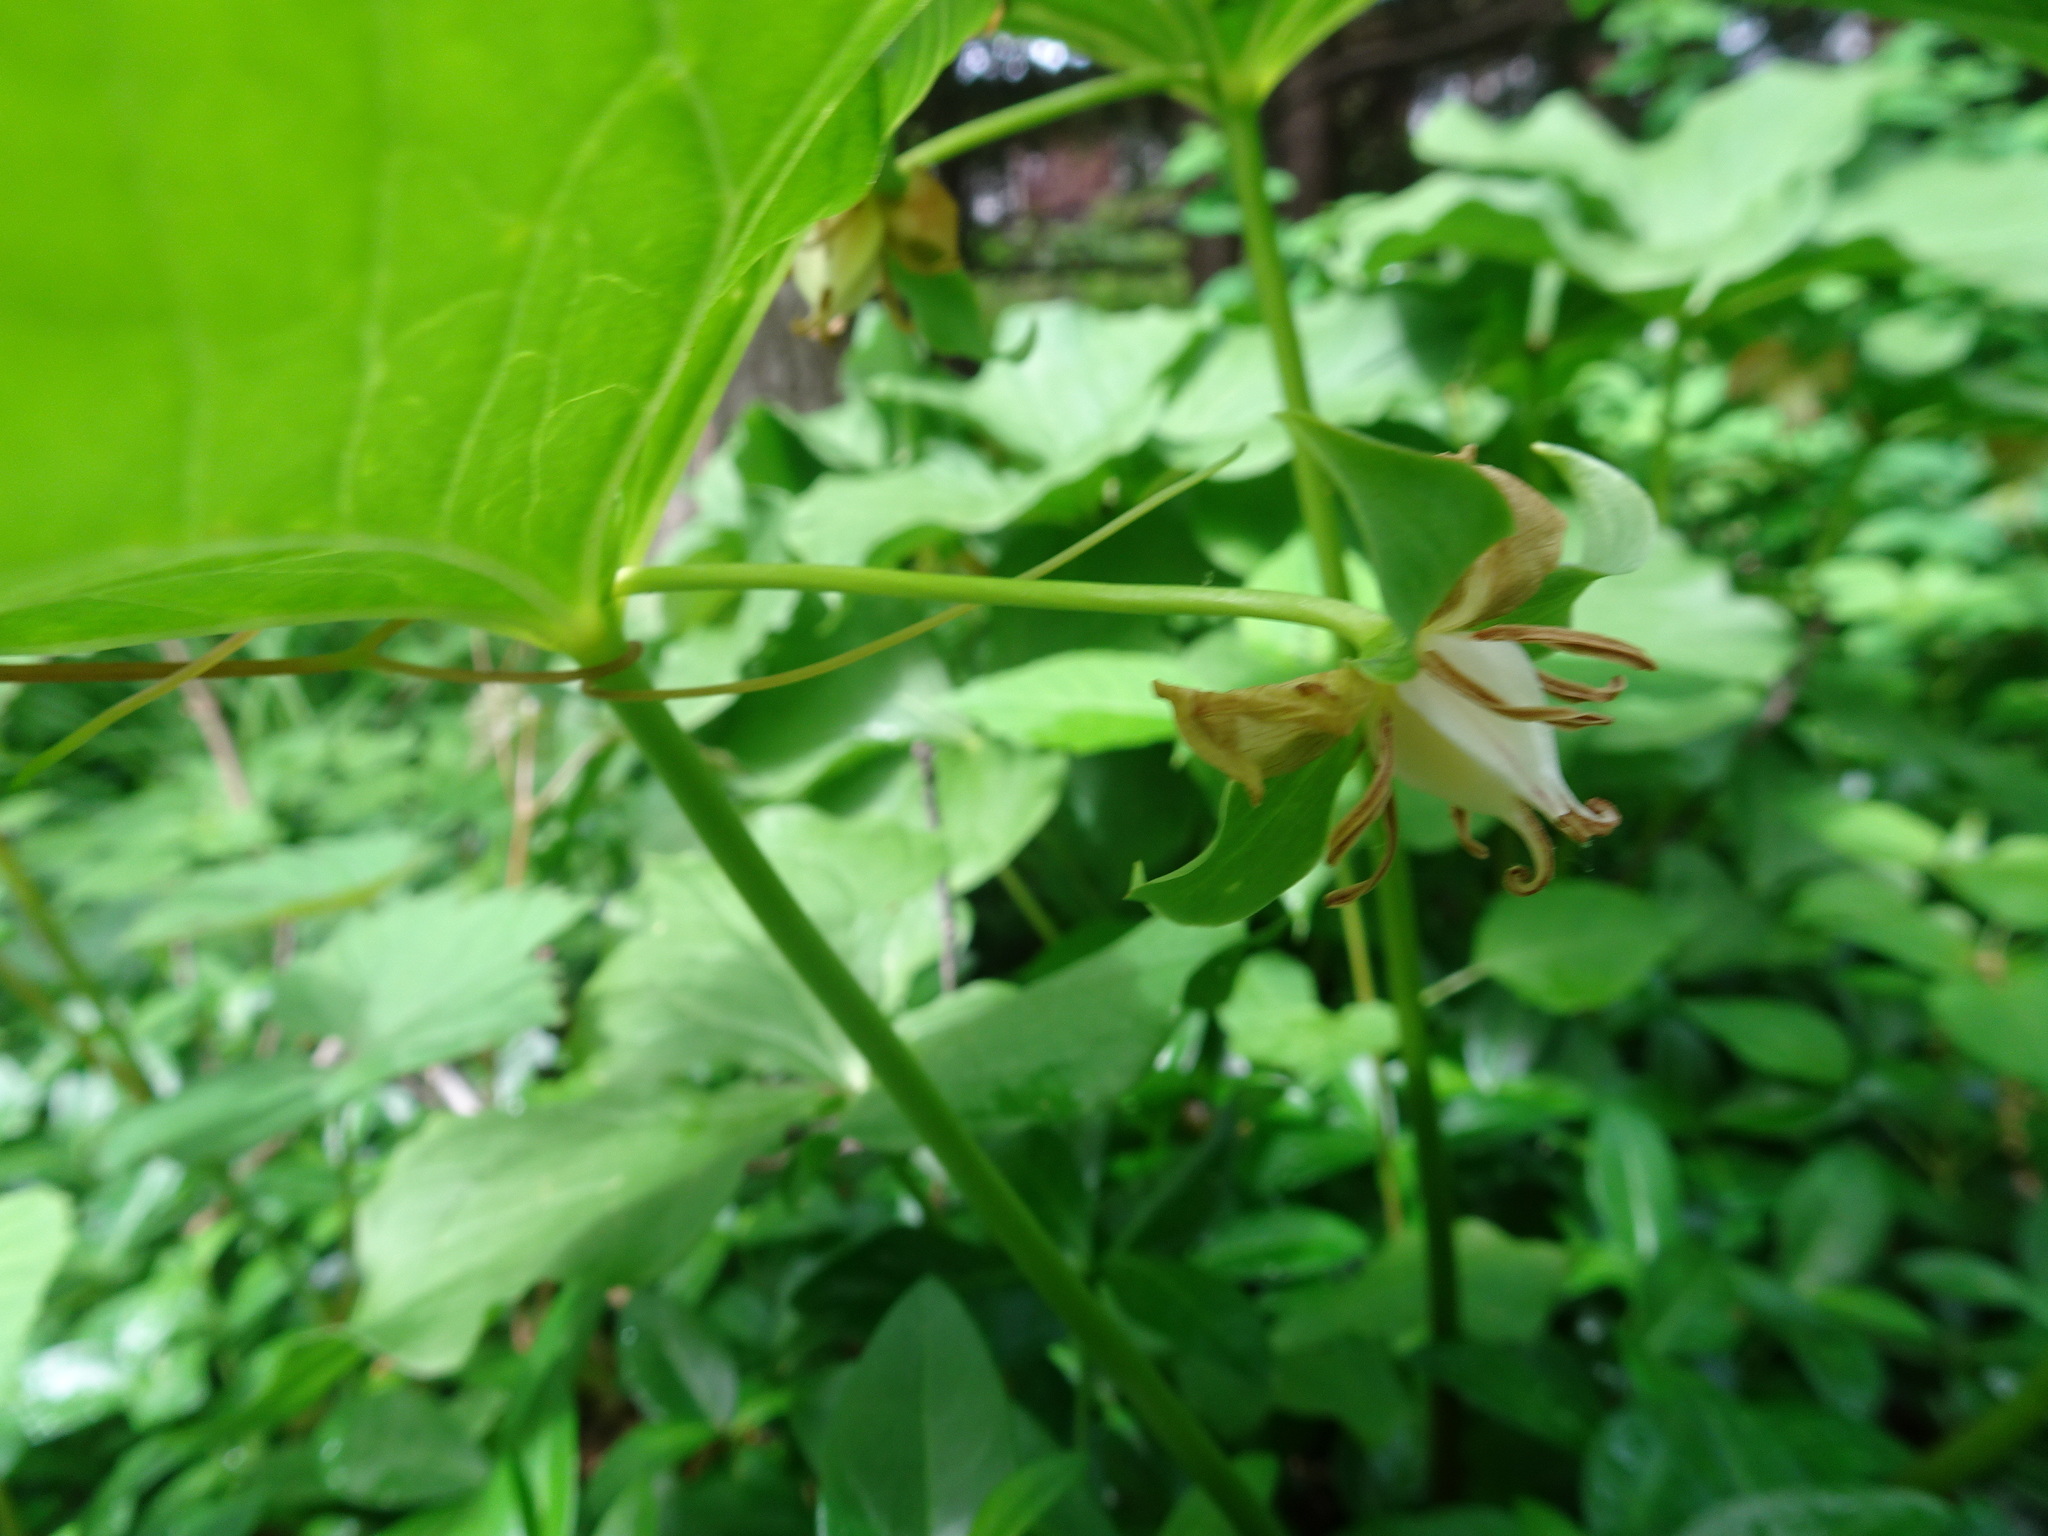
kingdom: Plantae
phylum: Tracheophyta
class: Liliopsida
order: Liliales
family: Melanthiaceae
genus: Trillium
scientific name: Trillium flexipes
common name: Drooping trillium
